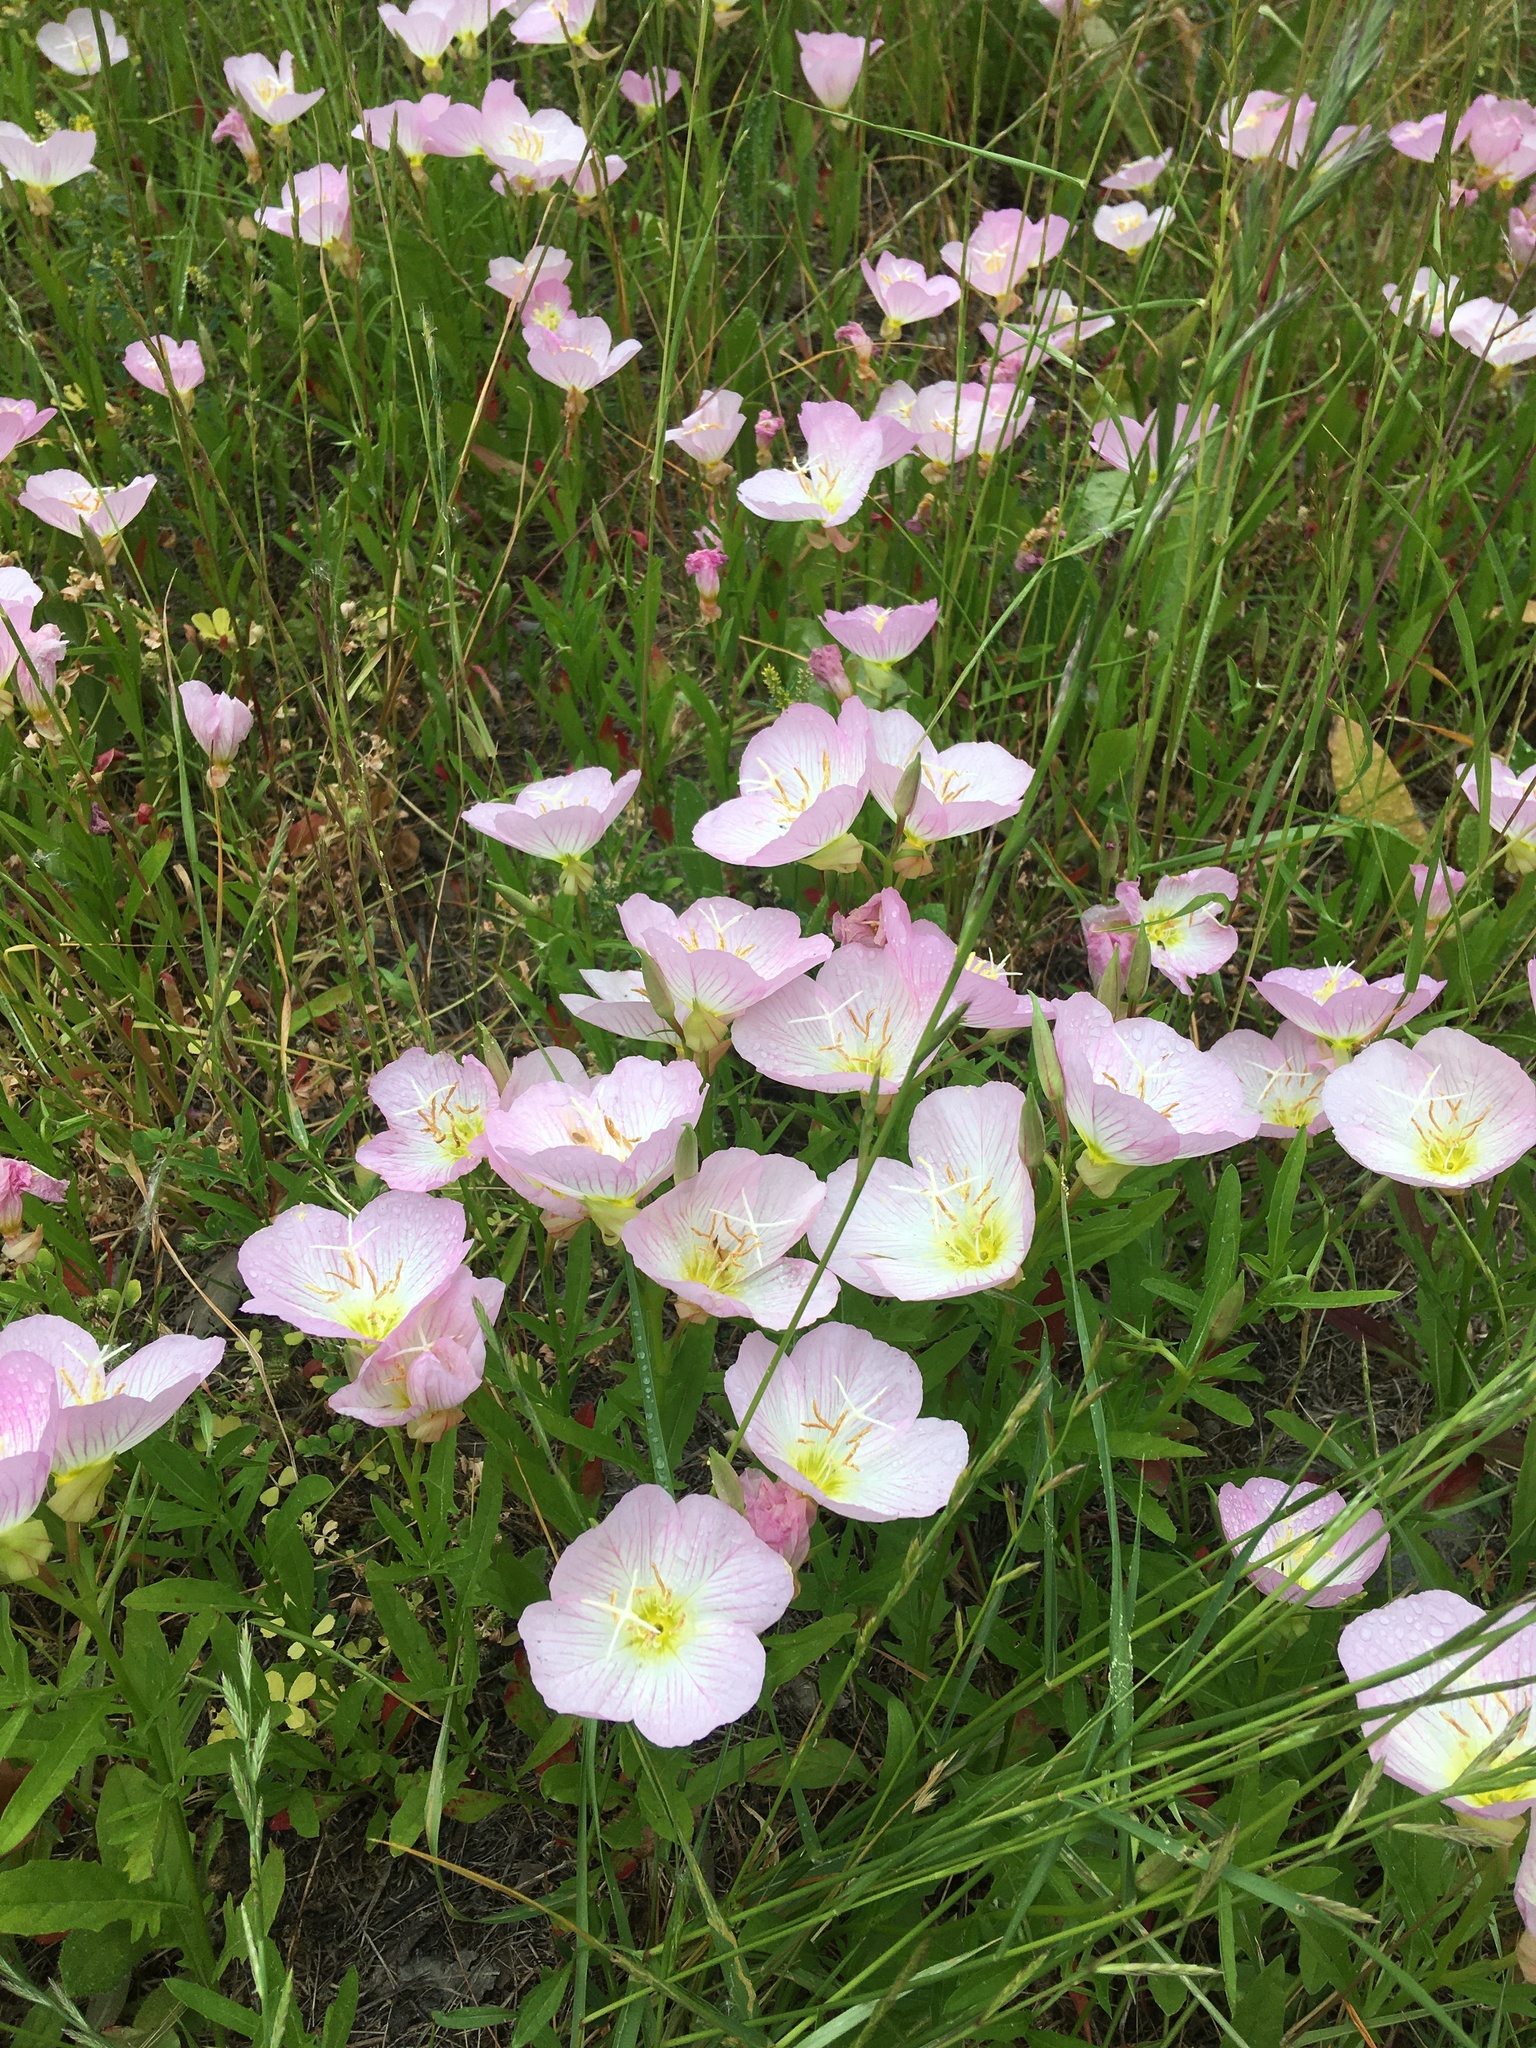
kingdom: Plantae
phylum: Tracheophyta
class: Magnoliopsida
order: Myrtales
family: Onagraceae
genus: Oenothera
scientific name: Oenothera speciosa
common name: White evening-primrose
